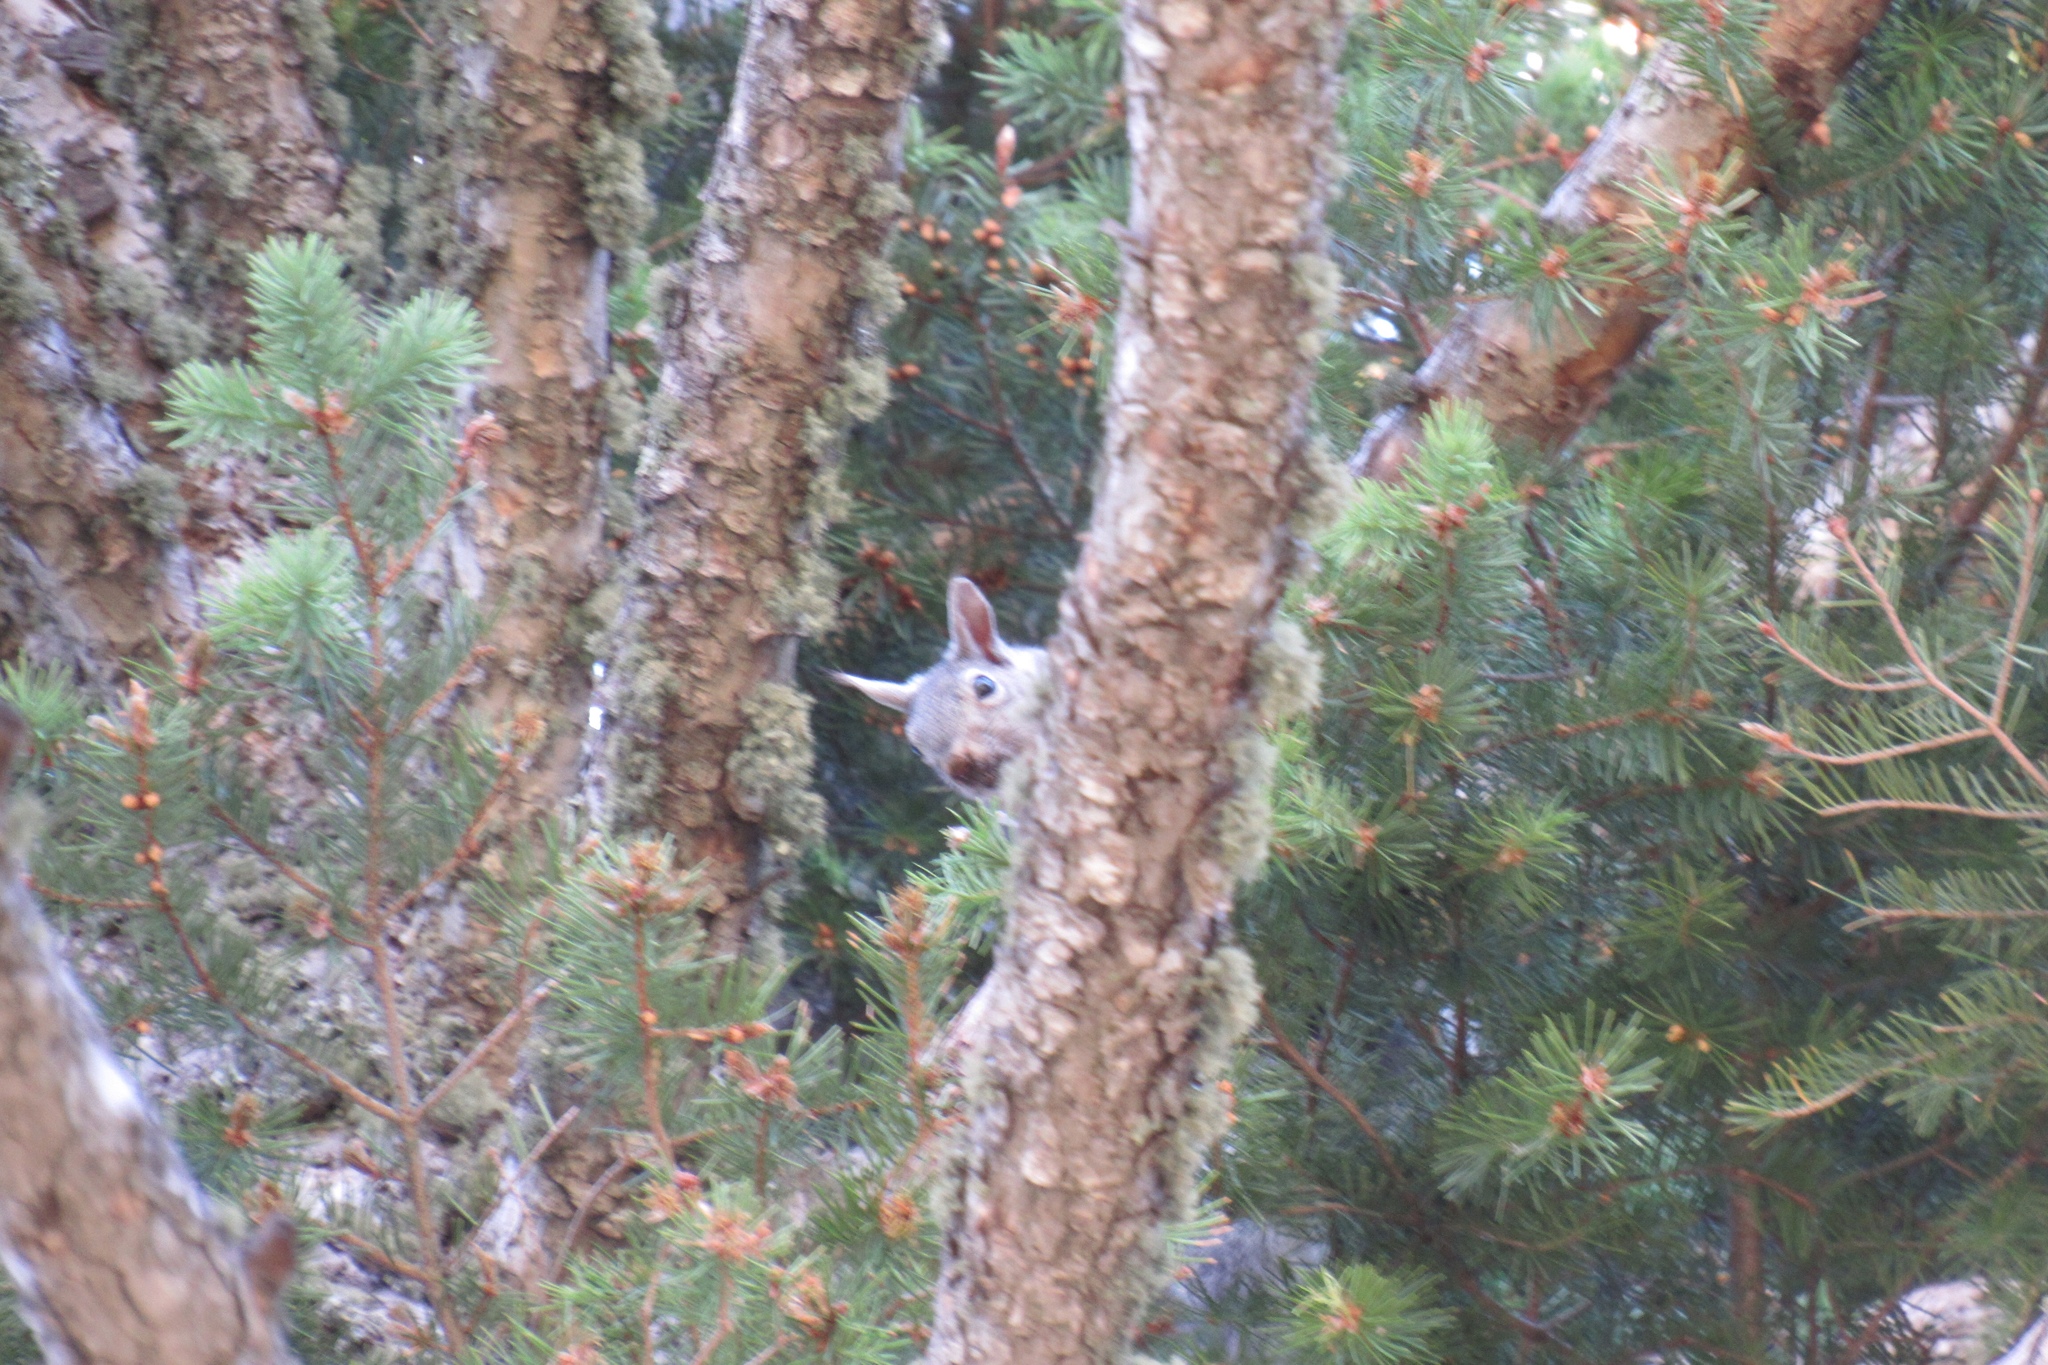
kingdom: Animalia
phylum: Chordata
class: Mammalia
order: Rodentia
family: Sciuridae
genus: Sciurus
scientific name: Sciurus aberti
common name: Abert's squirrel
